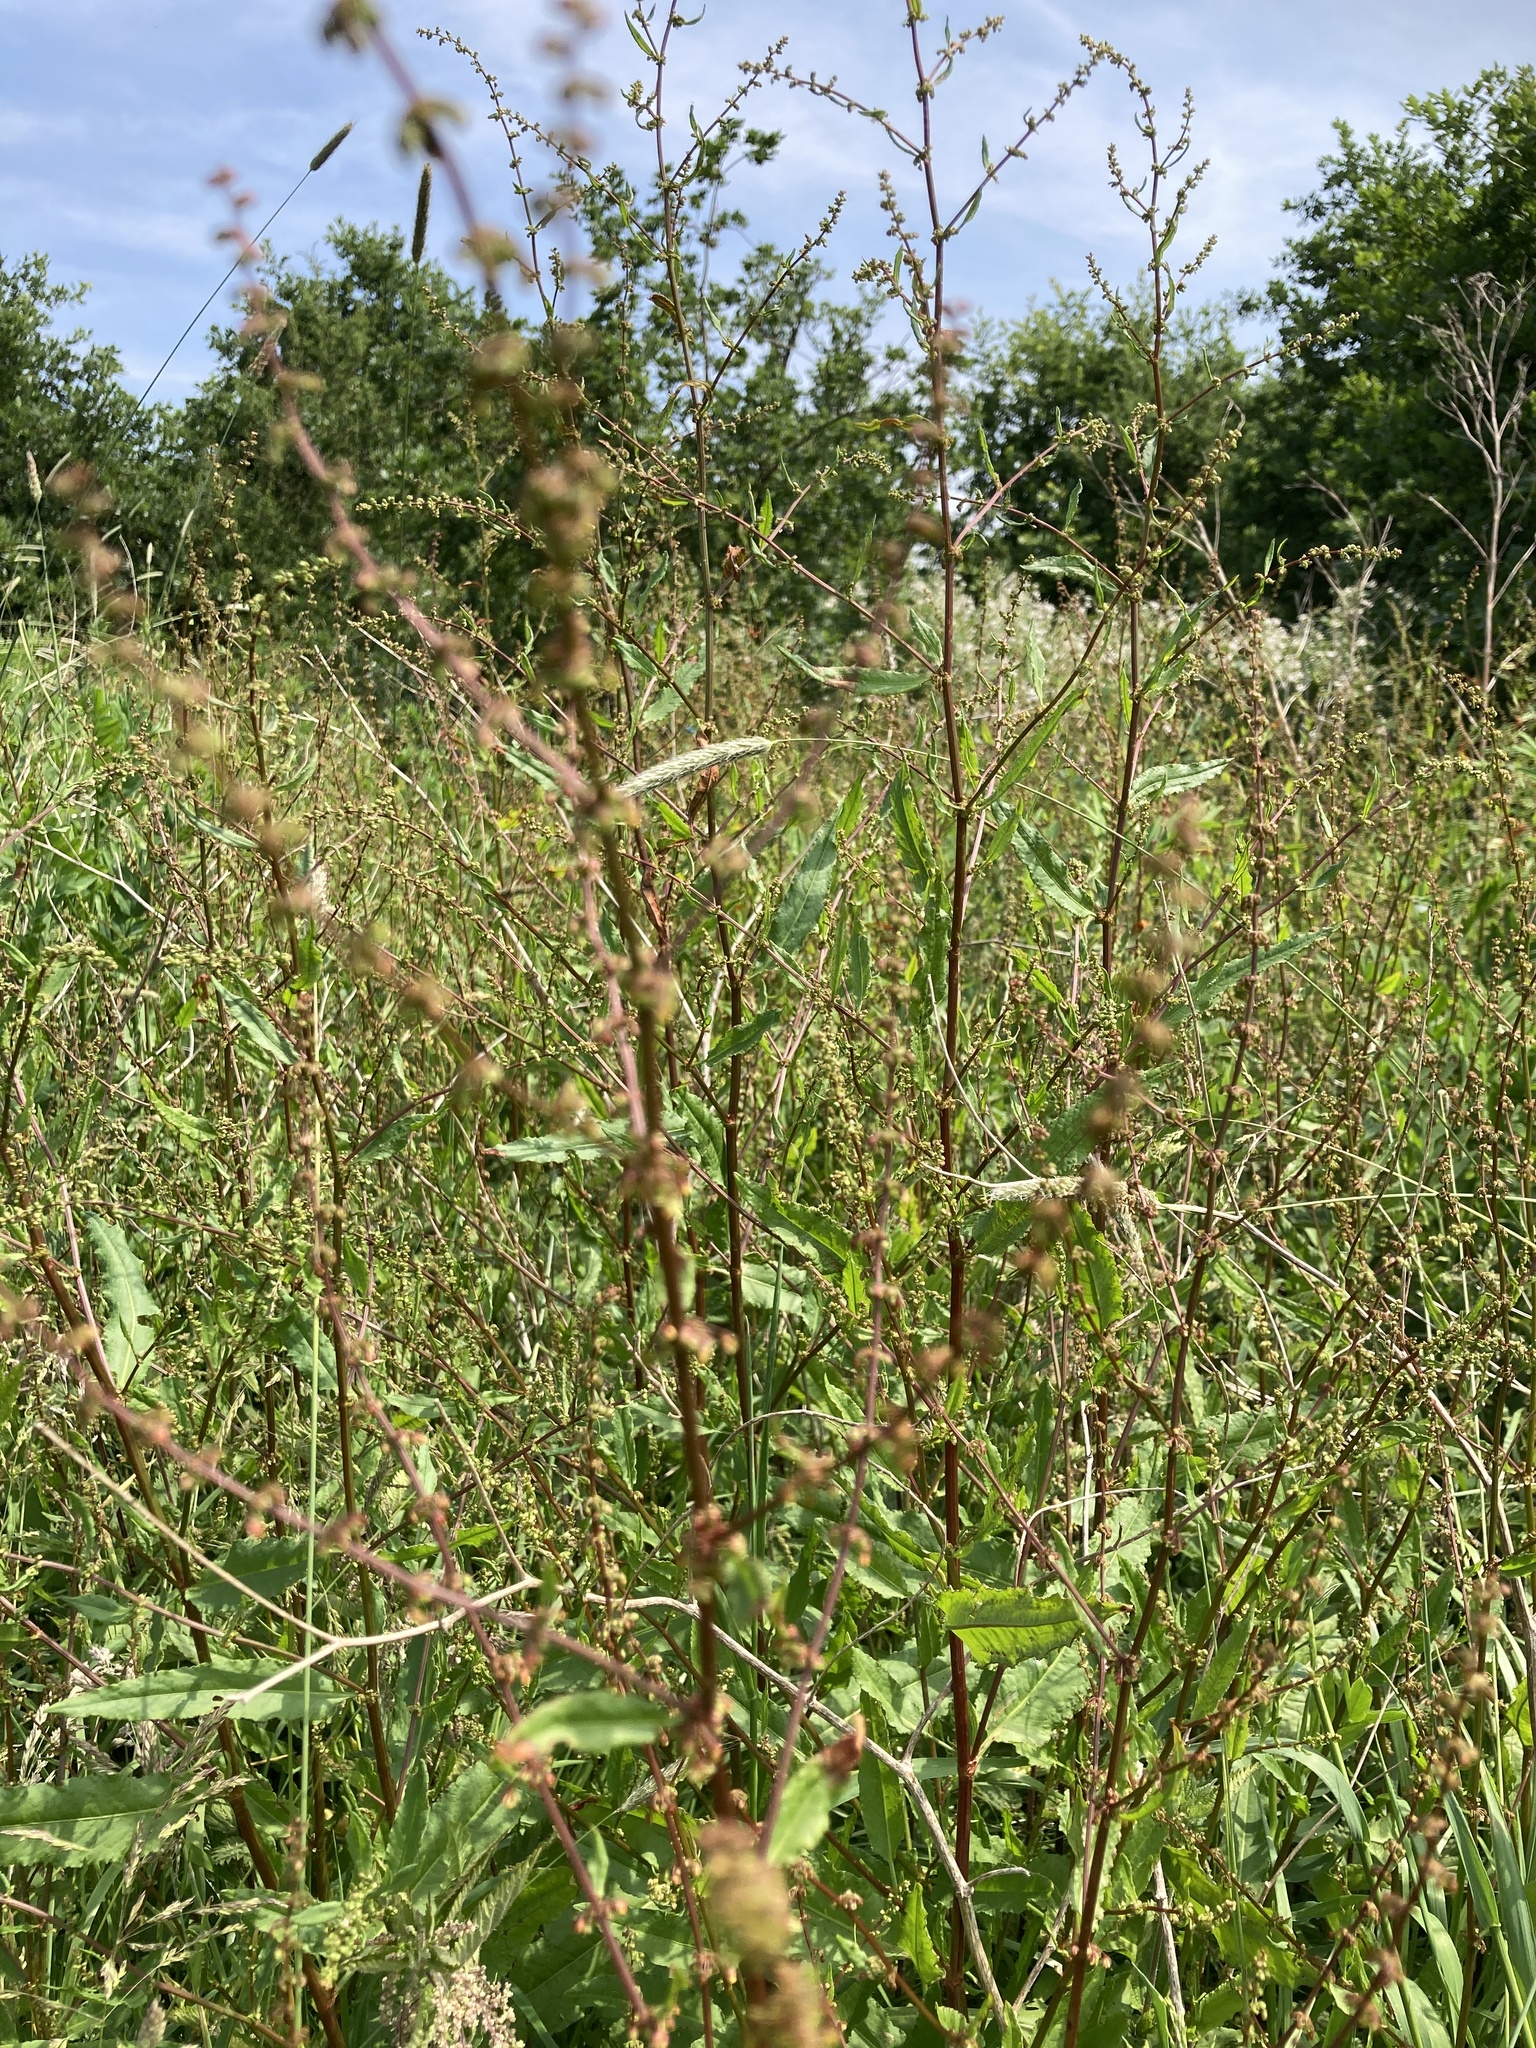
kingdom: Plantae
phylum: Tracheophyta
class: Magnoliopsida
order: Caryophyllales
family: Polygonaceae
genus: Rumex
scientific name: Rumex
